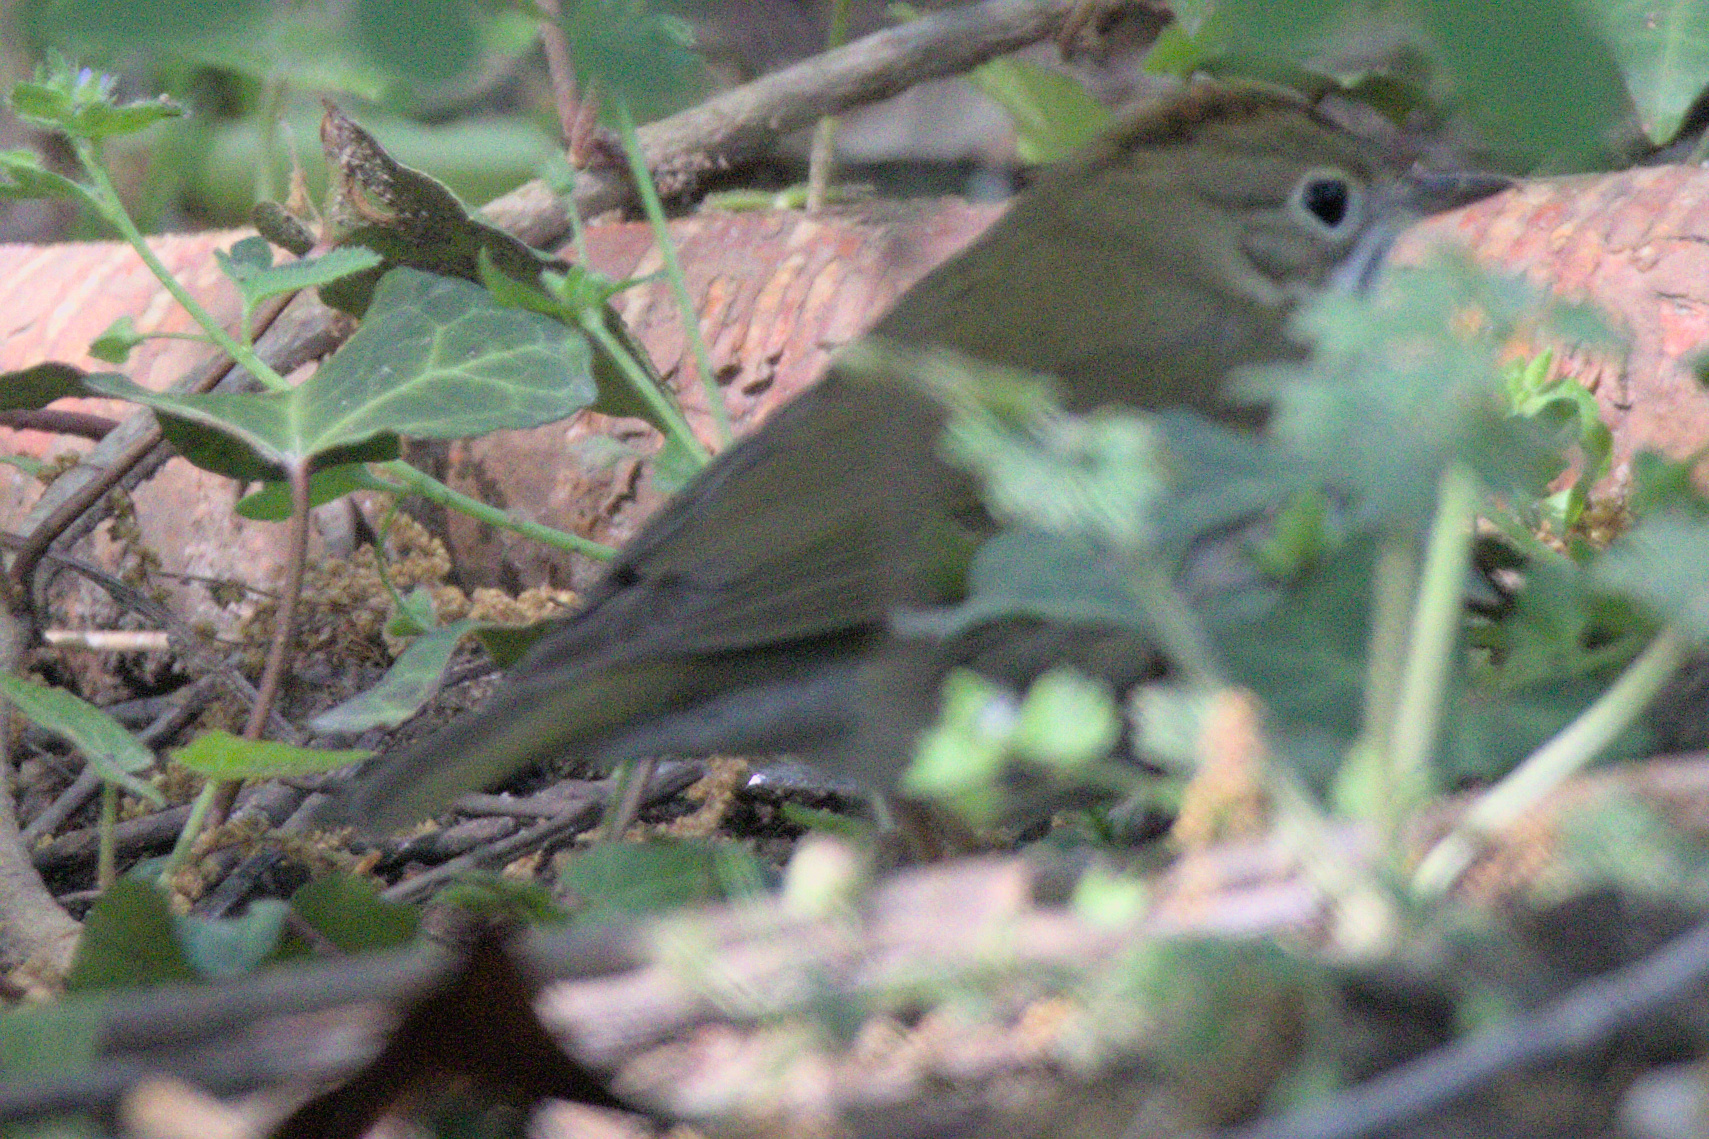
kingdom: Animalia
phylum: Chordata
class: Aves
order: Passeriformes
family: Parulidae
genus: Seiurus
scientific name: Seiurus aurocapilla
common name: Ovenbird
